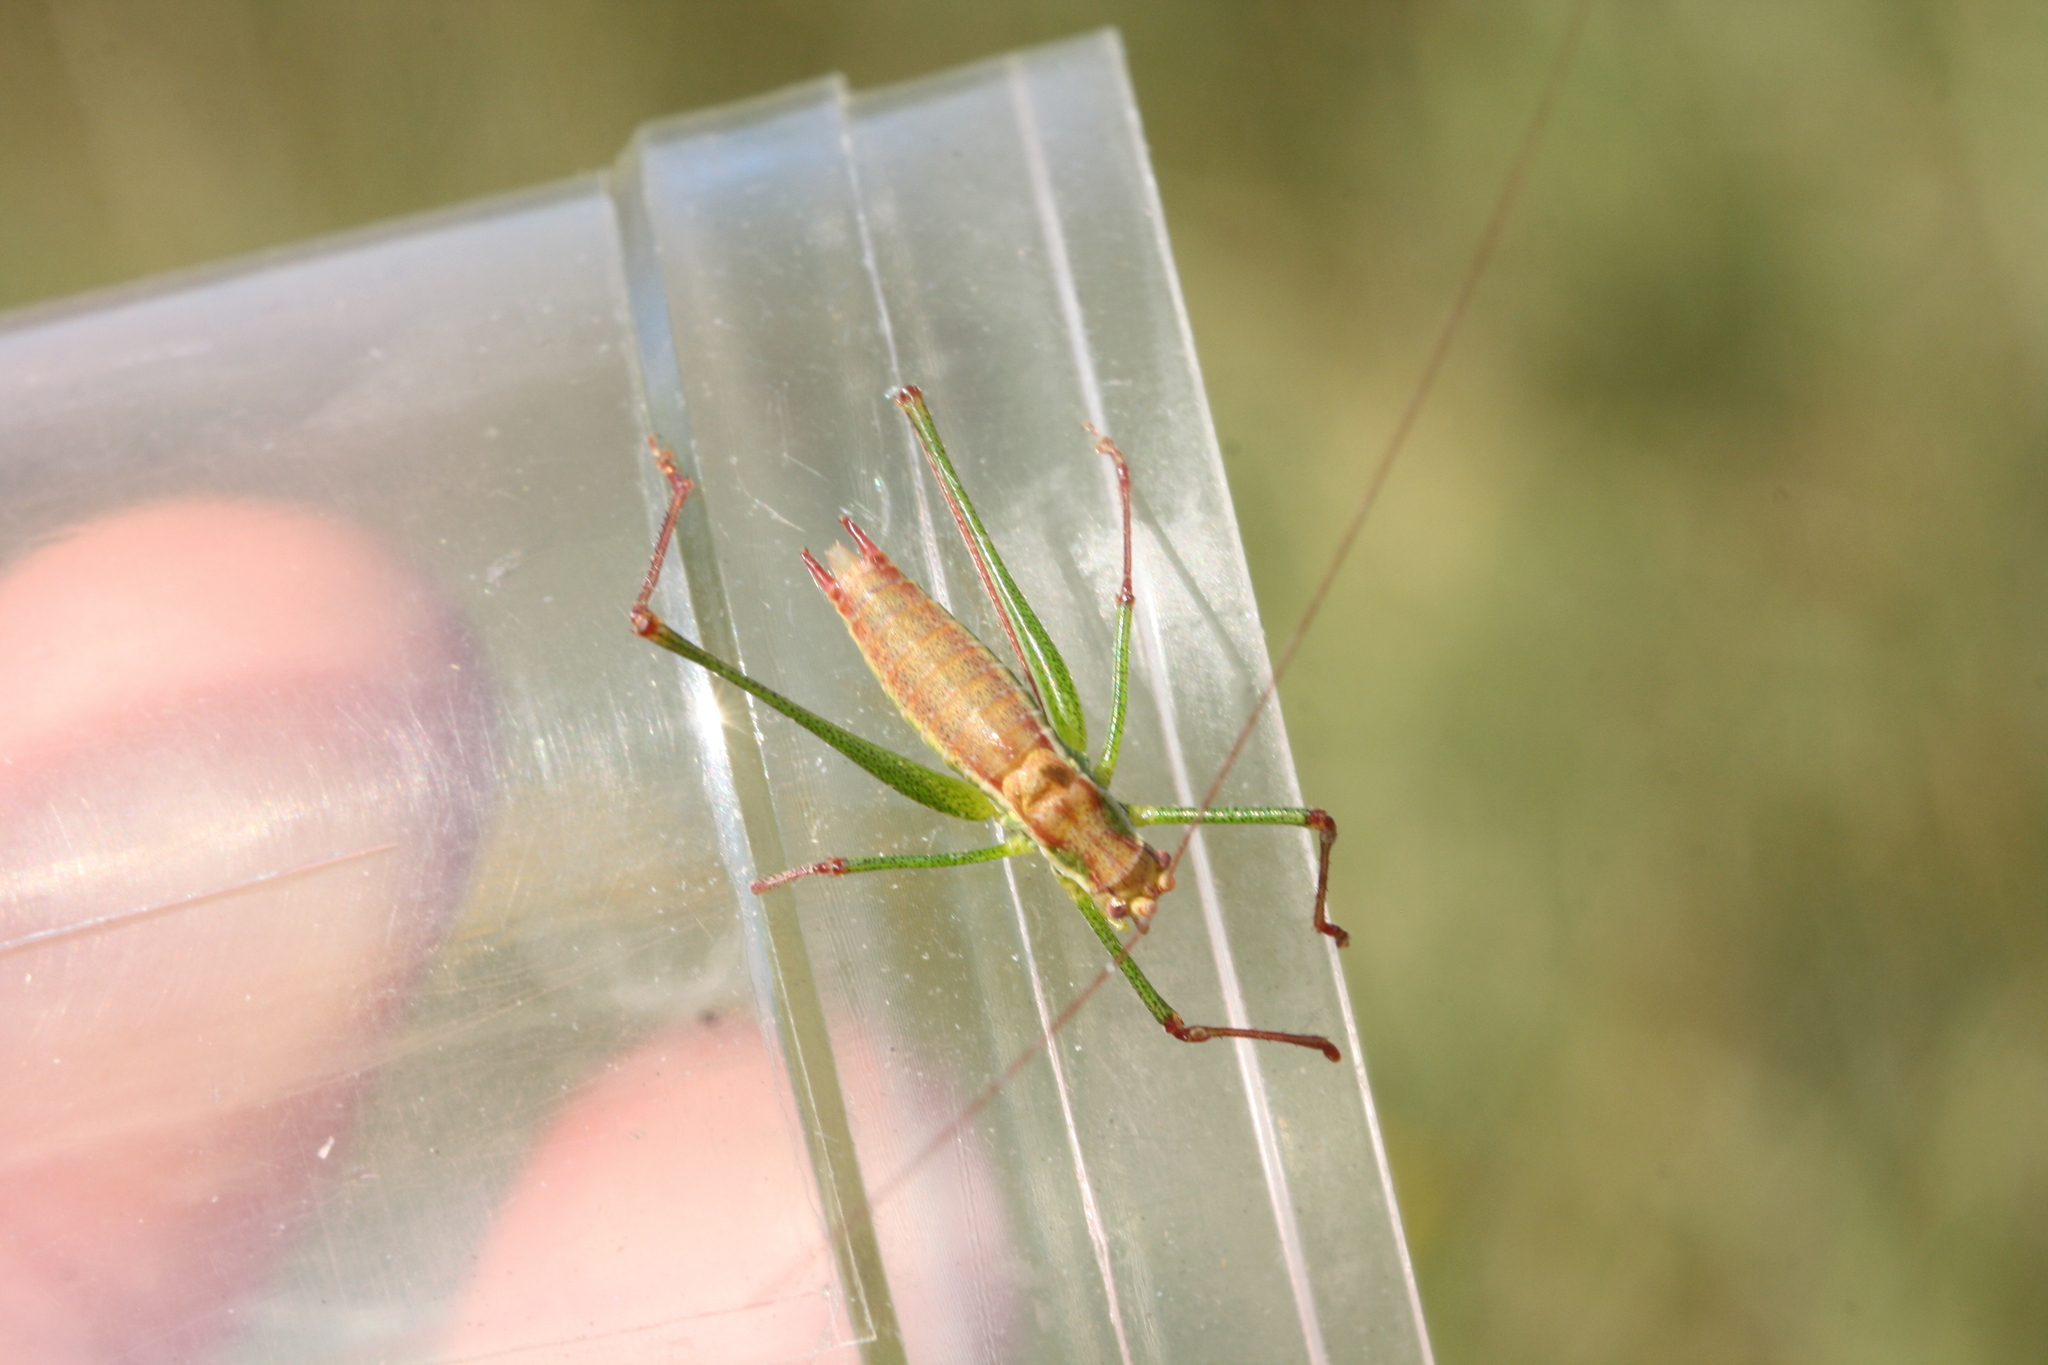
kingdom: Animalia
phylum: Arthropoda
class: Insecta
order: Orthoptera
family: Tettigoniidae
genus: Leptophyes
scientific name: Leptophyes albovittata
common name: Striped bush-cricket
